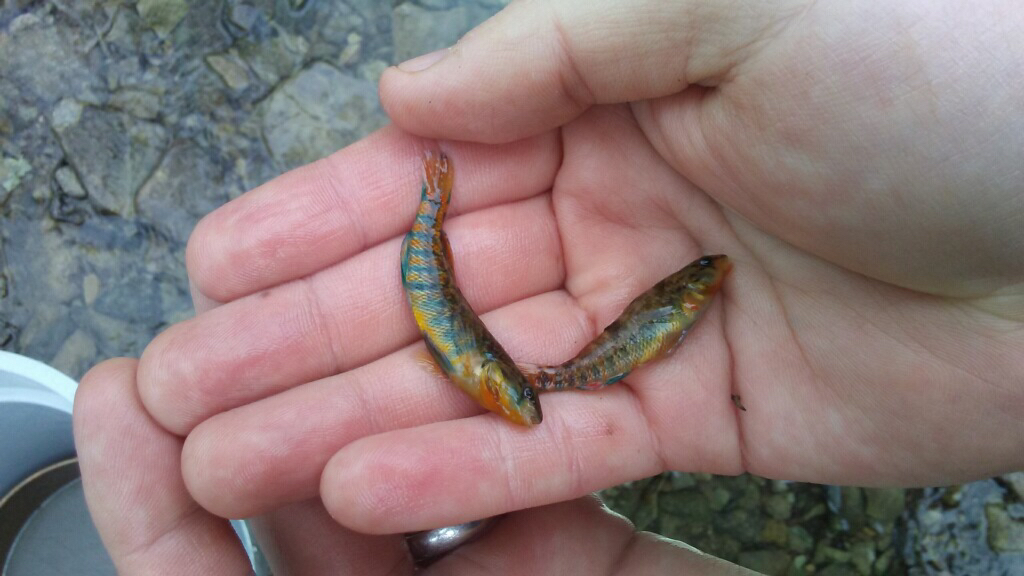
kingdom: Animalia
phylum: Chordata
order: Perciformes
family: Percidae
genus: Etheostoma
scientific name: Etheostoma caeruleum
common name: Rainbow darter
